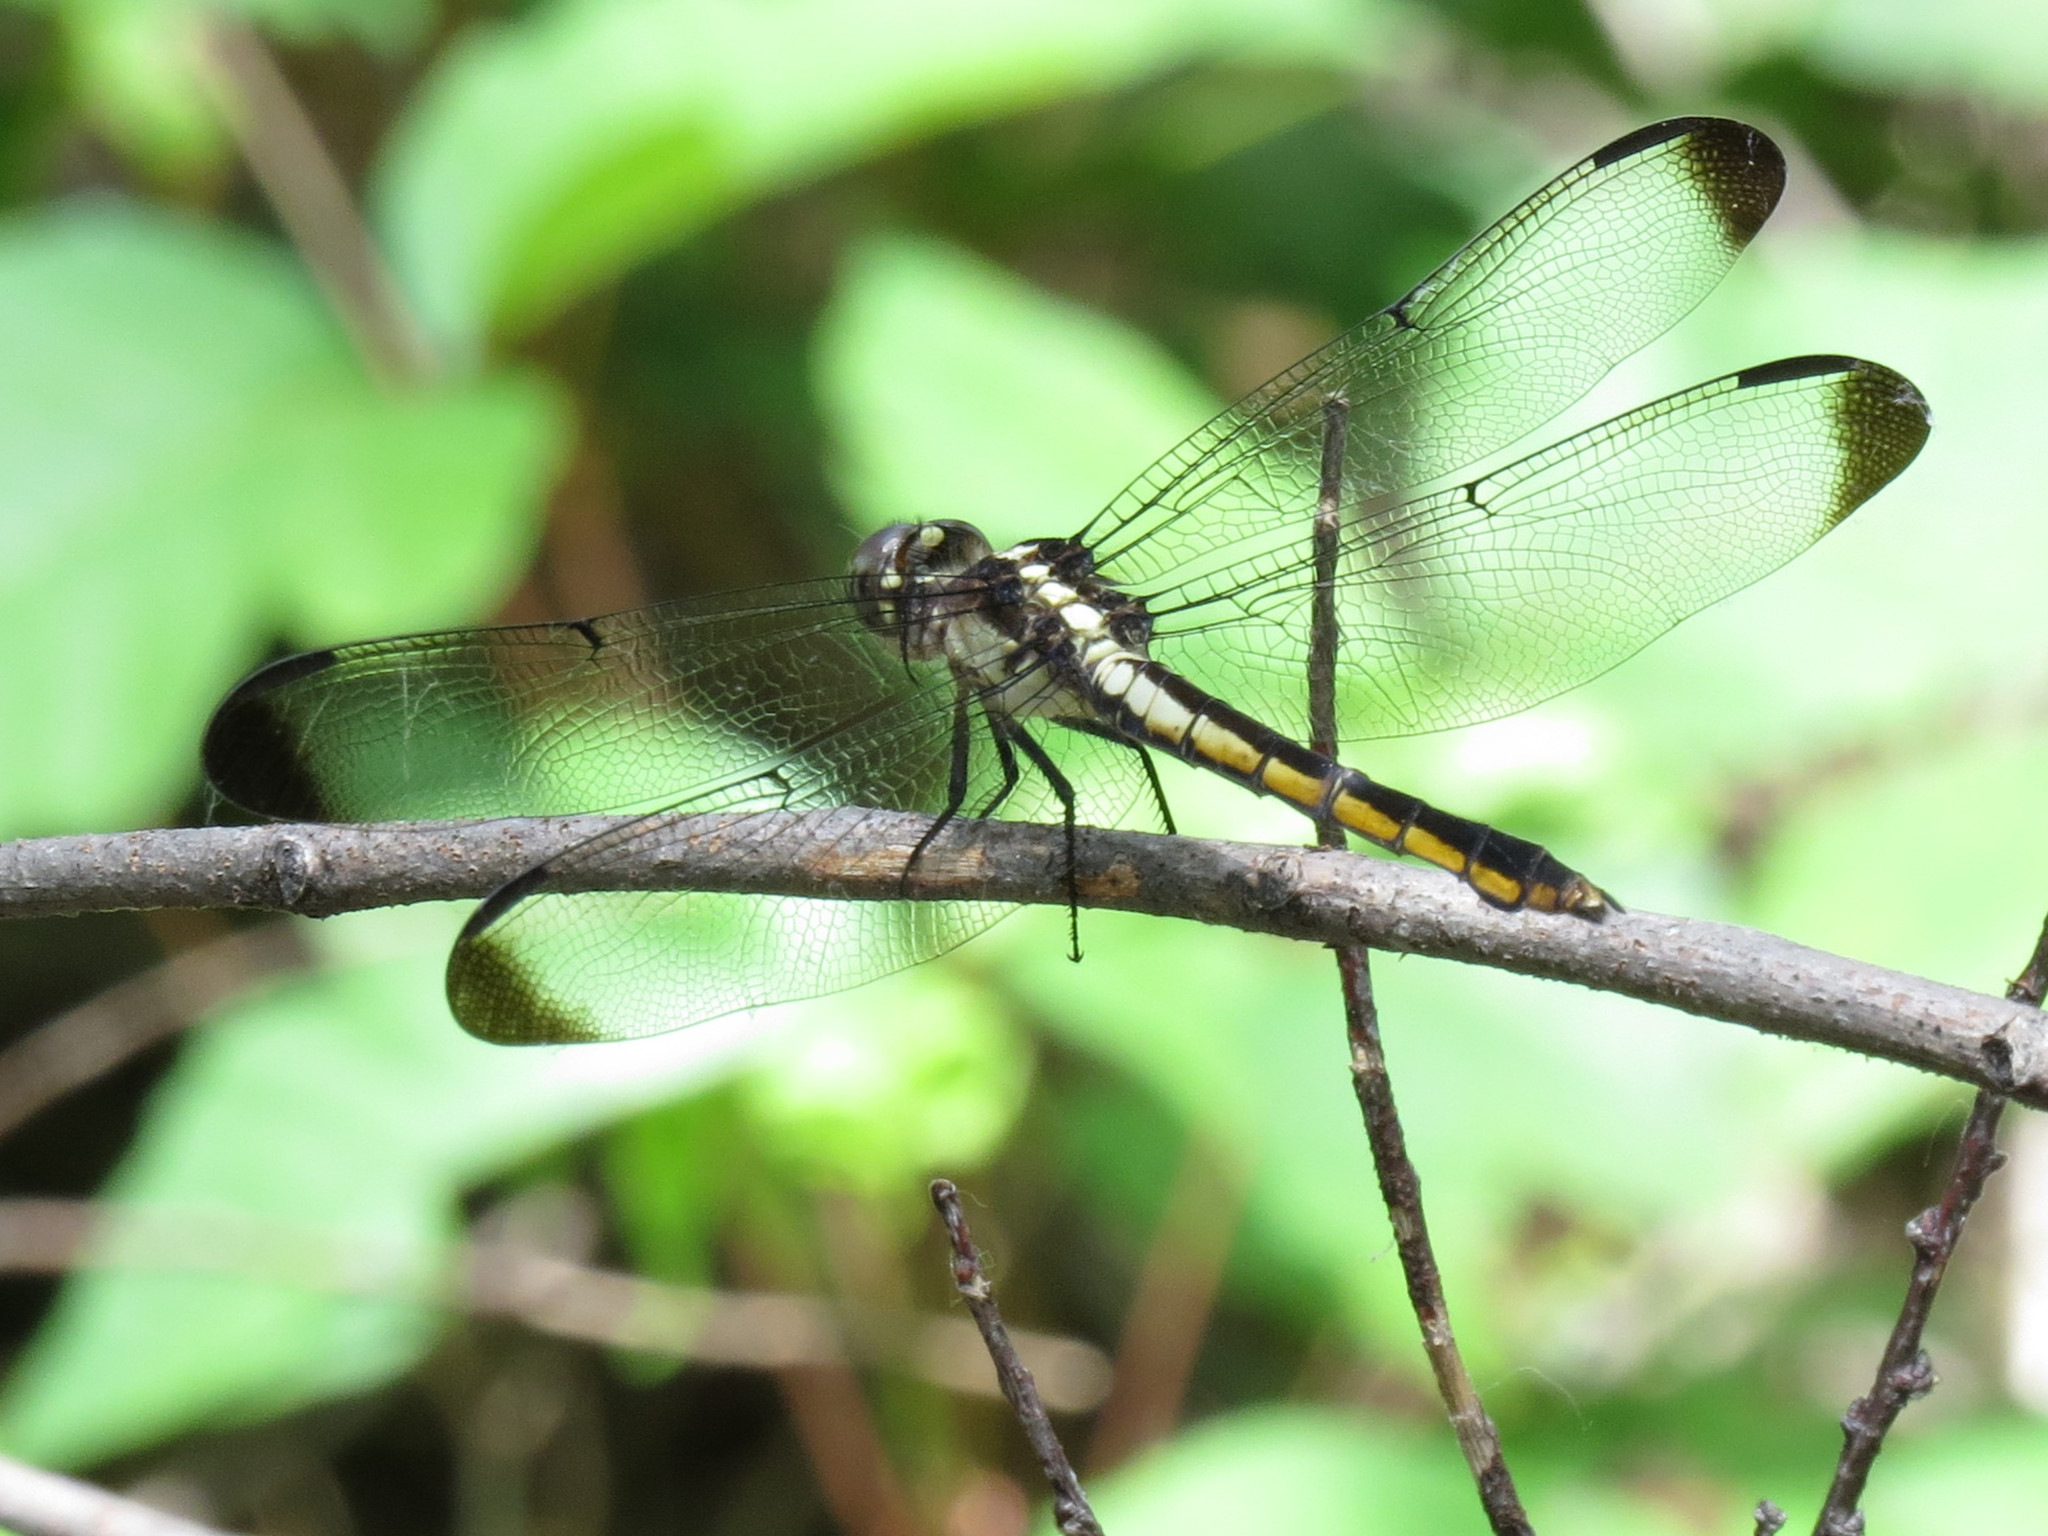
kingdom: Animalia
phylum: Arthropoda
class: Insecta
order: Odonata
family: Libellulidae
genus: Libellula
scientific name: Libellula incesta
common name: Slaty skimmer
